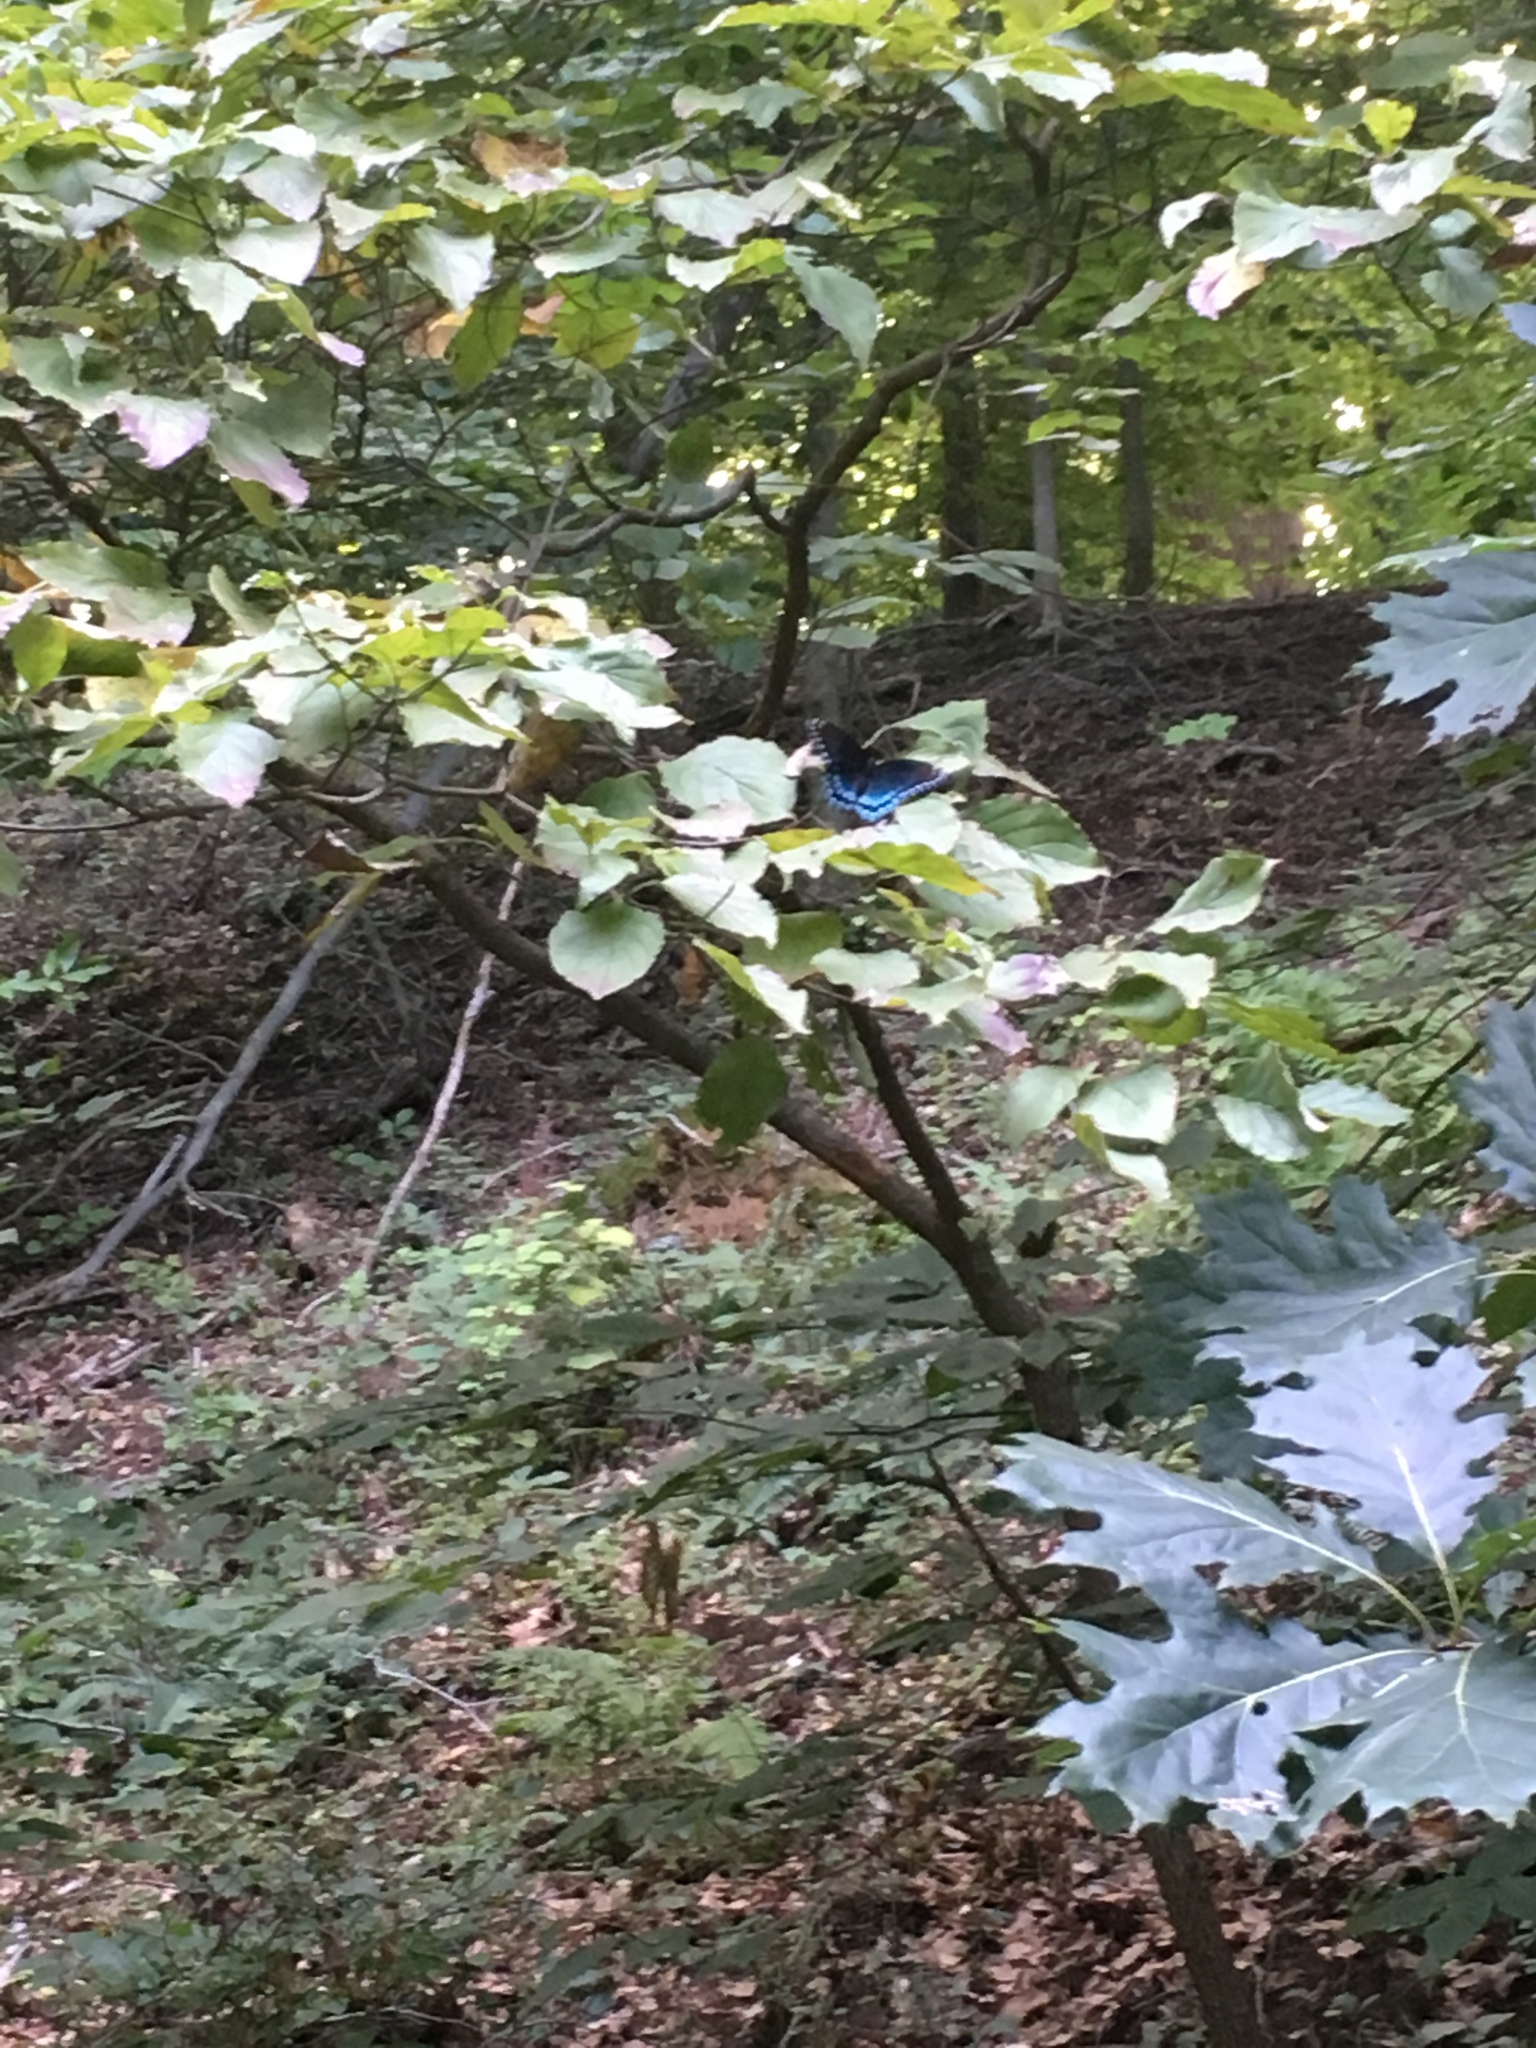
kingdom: Animalia
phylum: Arthropoda
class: Insecta
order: Lepidoptera
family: Nymphalidae
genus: Limenitis
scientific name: Limenitis arthemis
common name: Red-spotted admiral
